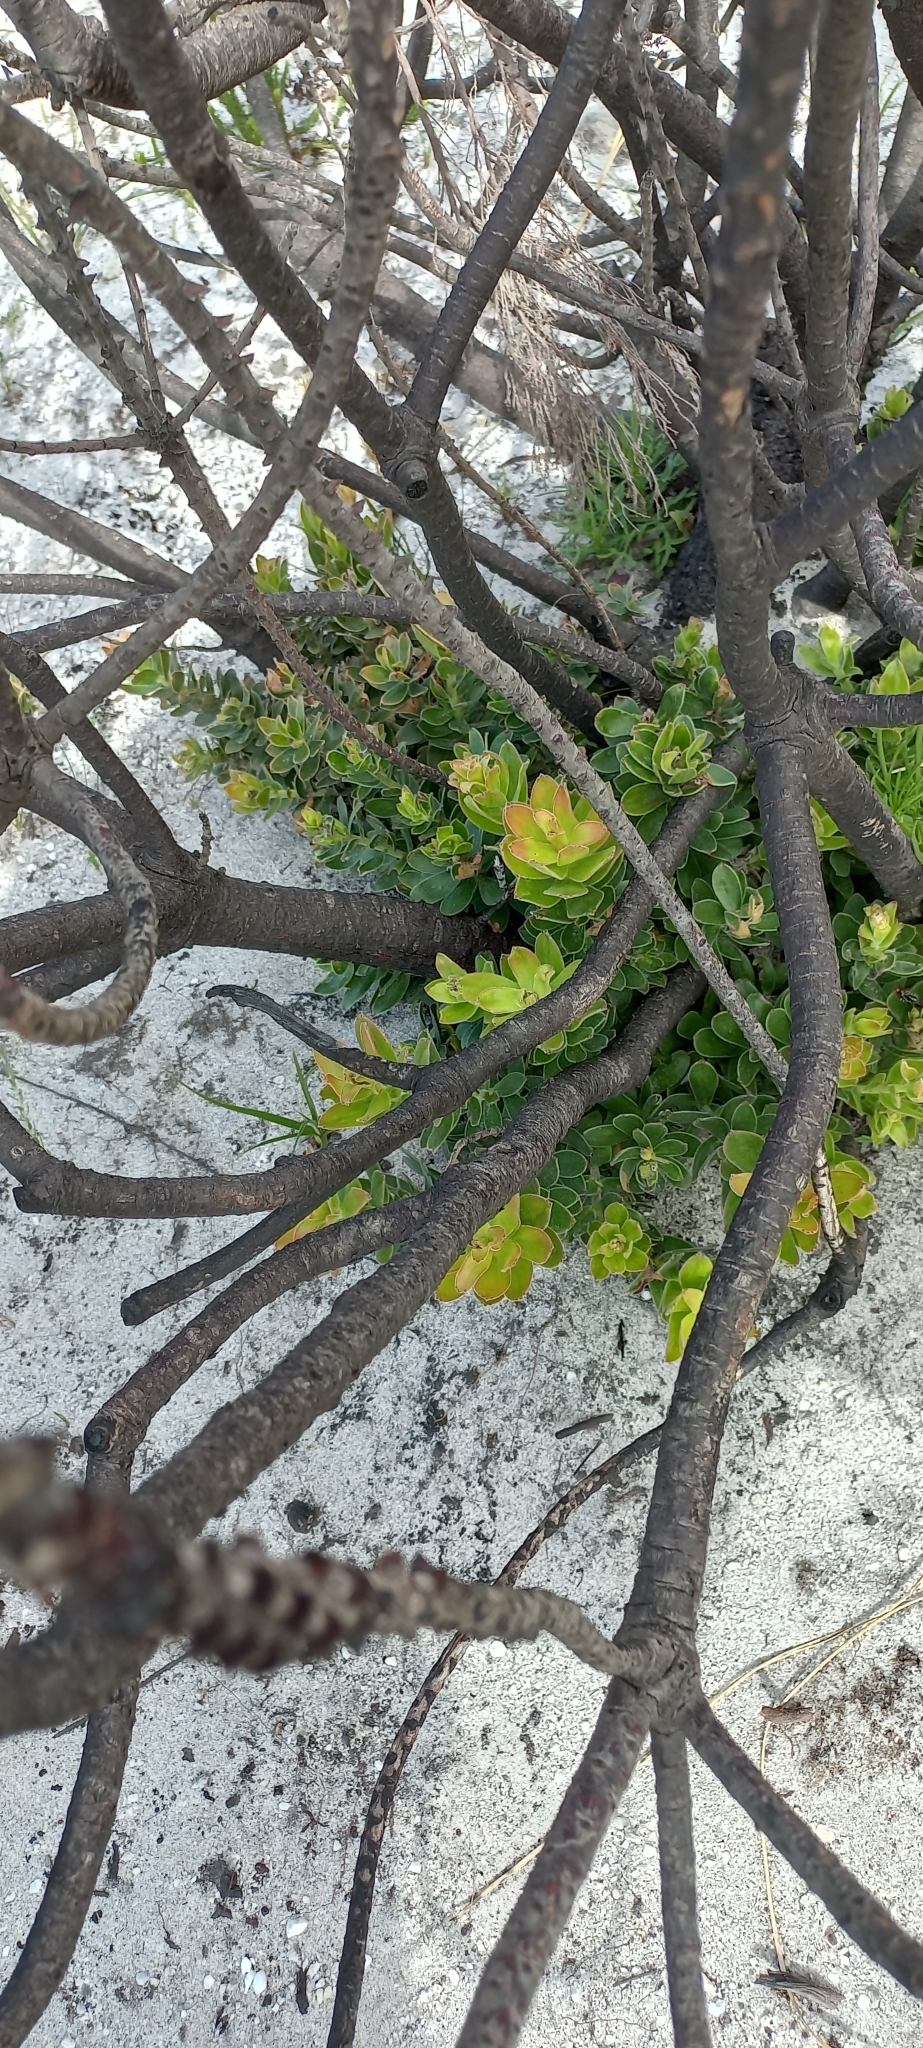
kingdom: Plantae
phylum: Tracheophyta
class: Magnoliopsida
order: Proteales
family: Proteaceae
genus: Mimetes
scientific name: Mimetes cucullatus
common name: Common pagoda
